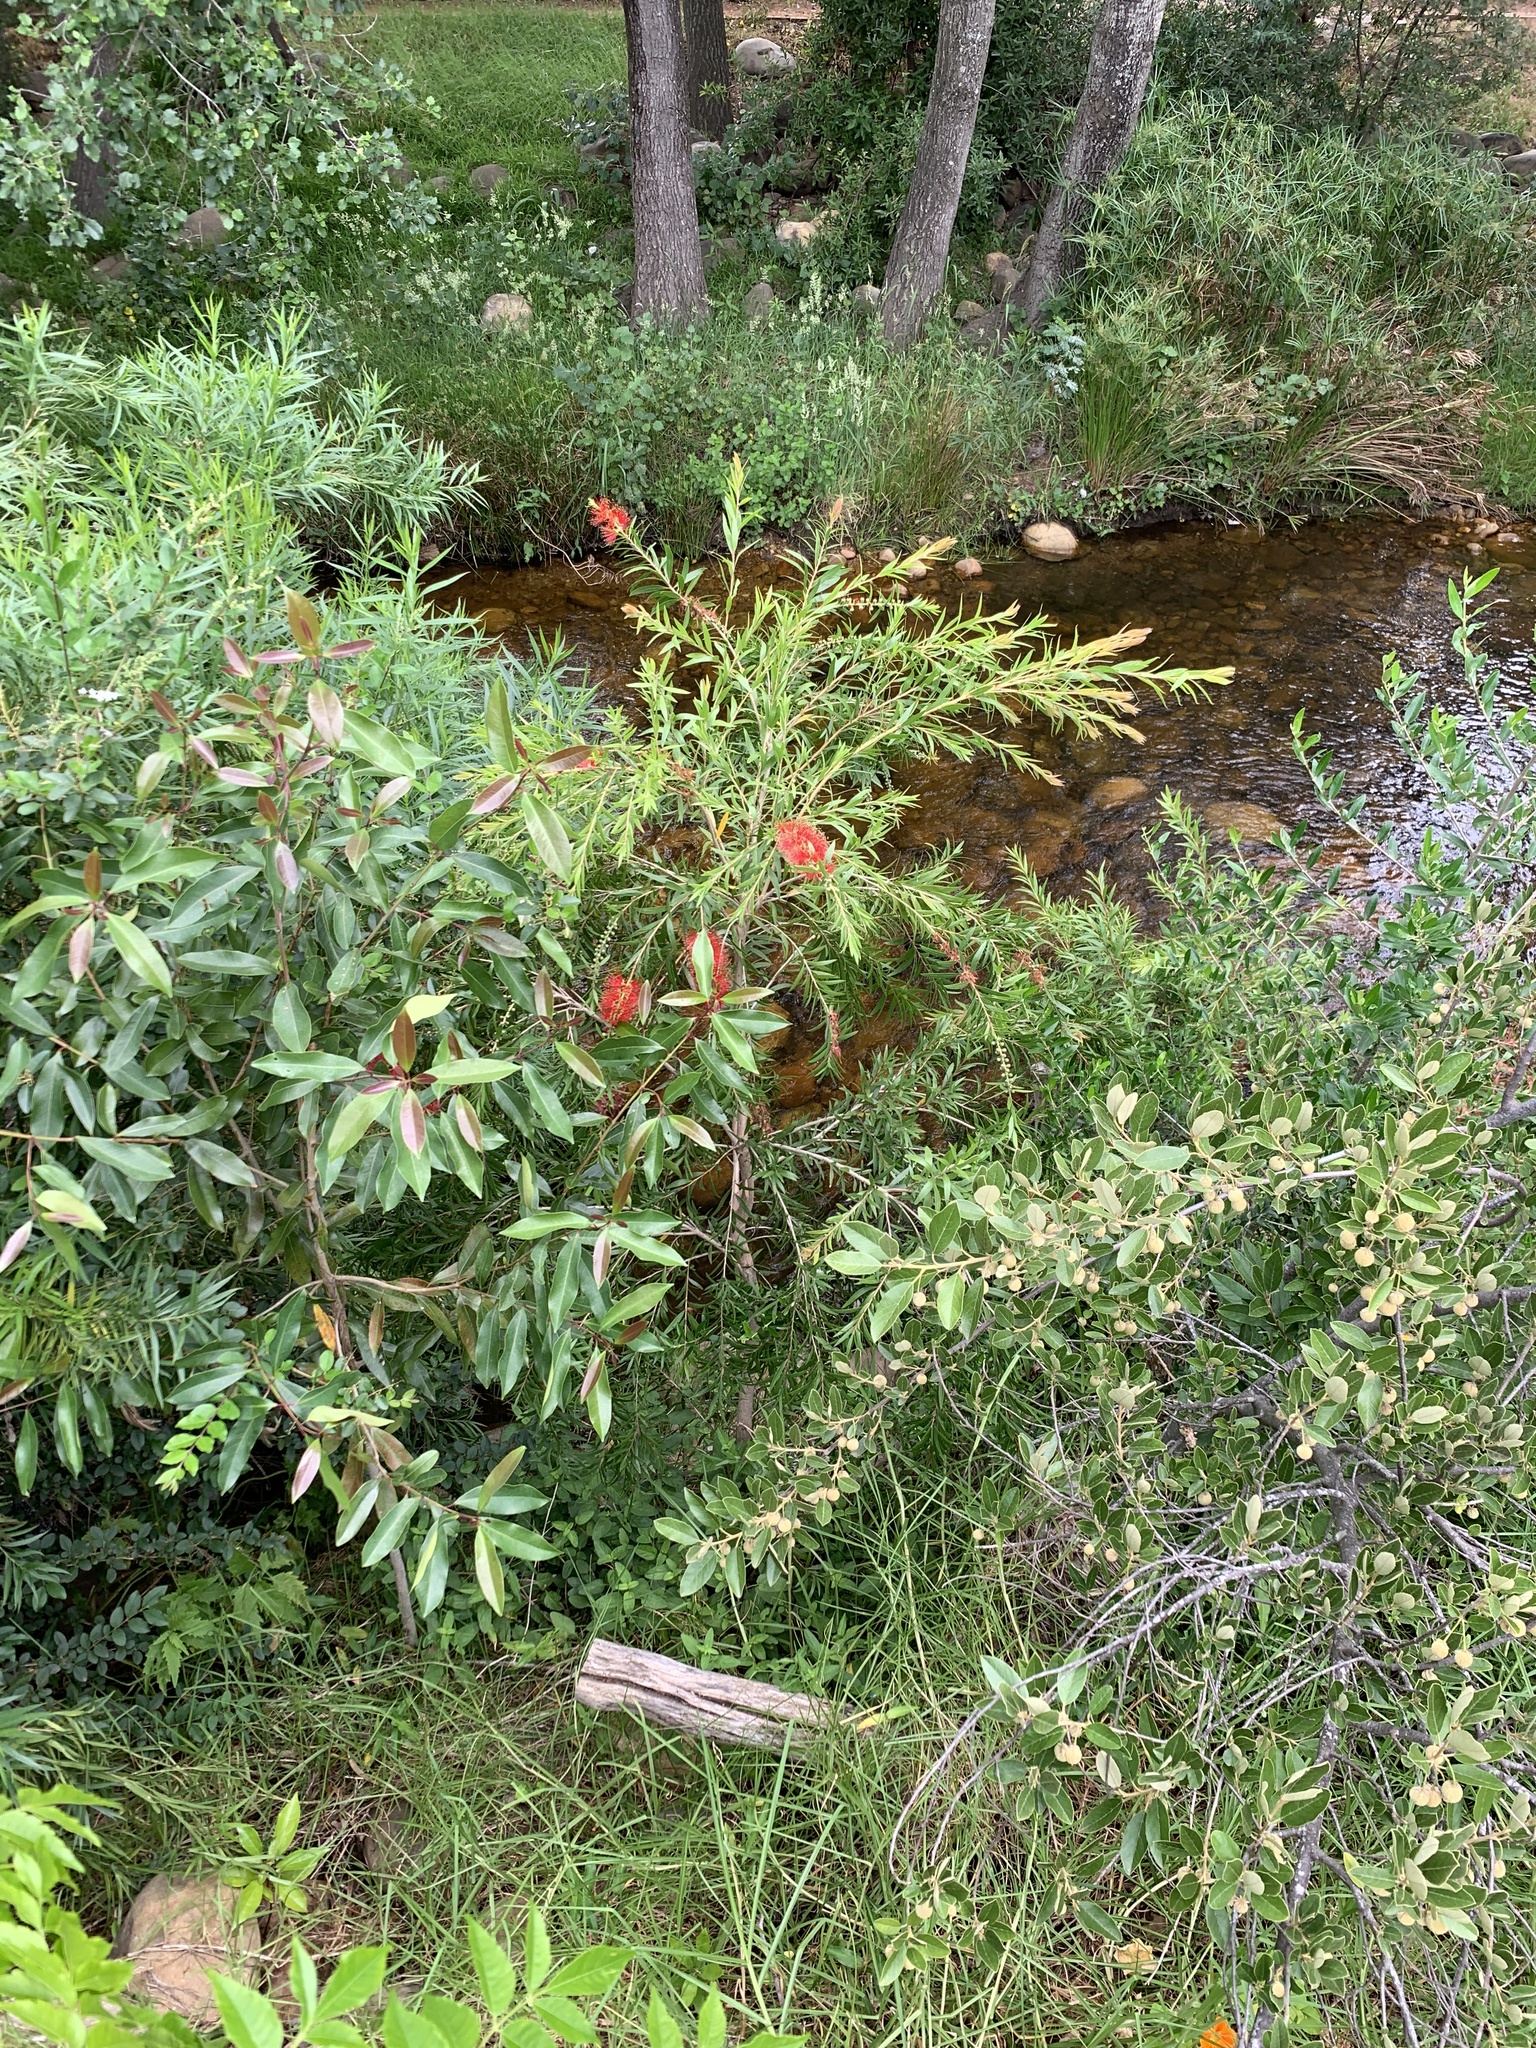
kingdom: Plantae
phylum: Tracheophyta
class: Magnoliopsida
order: Myrtales
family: Myrtaceae
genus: Callistemon
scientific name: Callistemon viminalis
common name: Drooping bottlebrush
